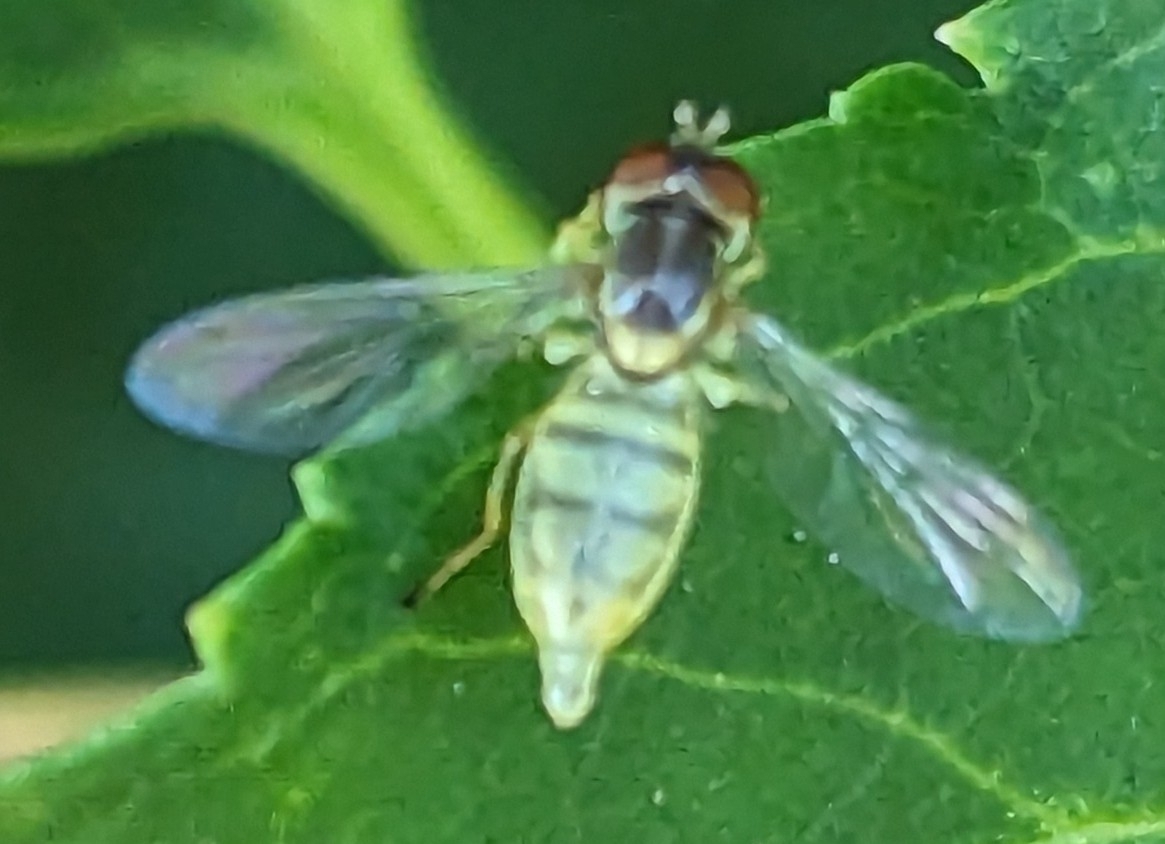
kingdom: Animalia
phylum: Arthropoda
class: Insecta
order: Diptera
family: Syrphidae
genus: Toxomerus
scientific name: Toxomerus marginatus
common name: Syrphid fly
